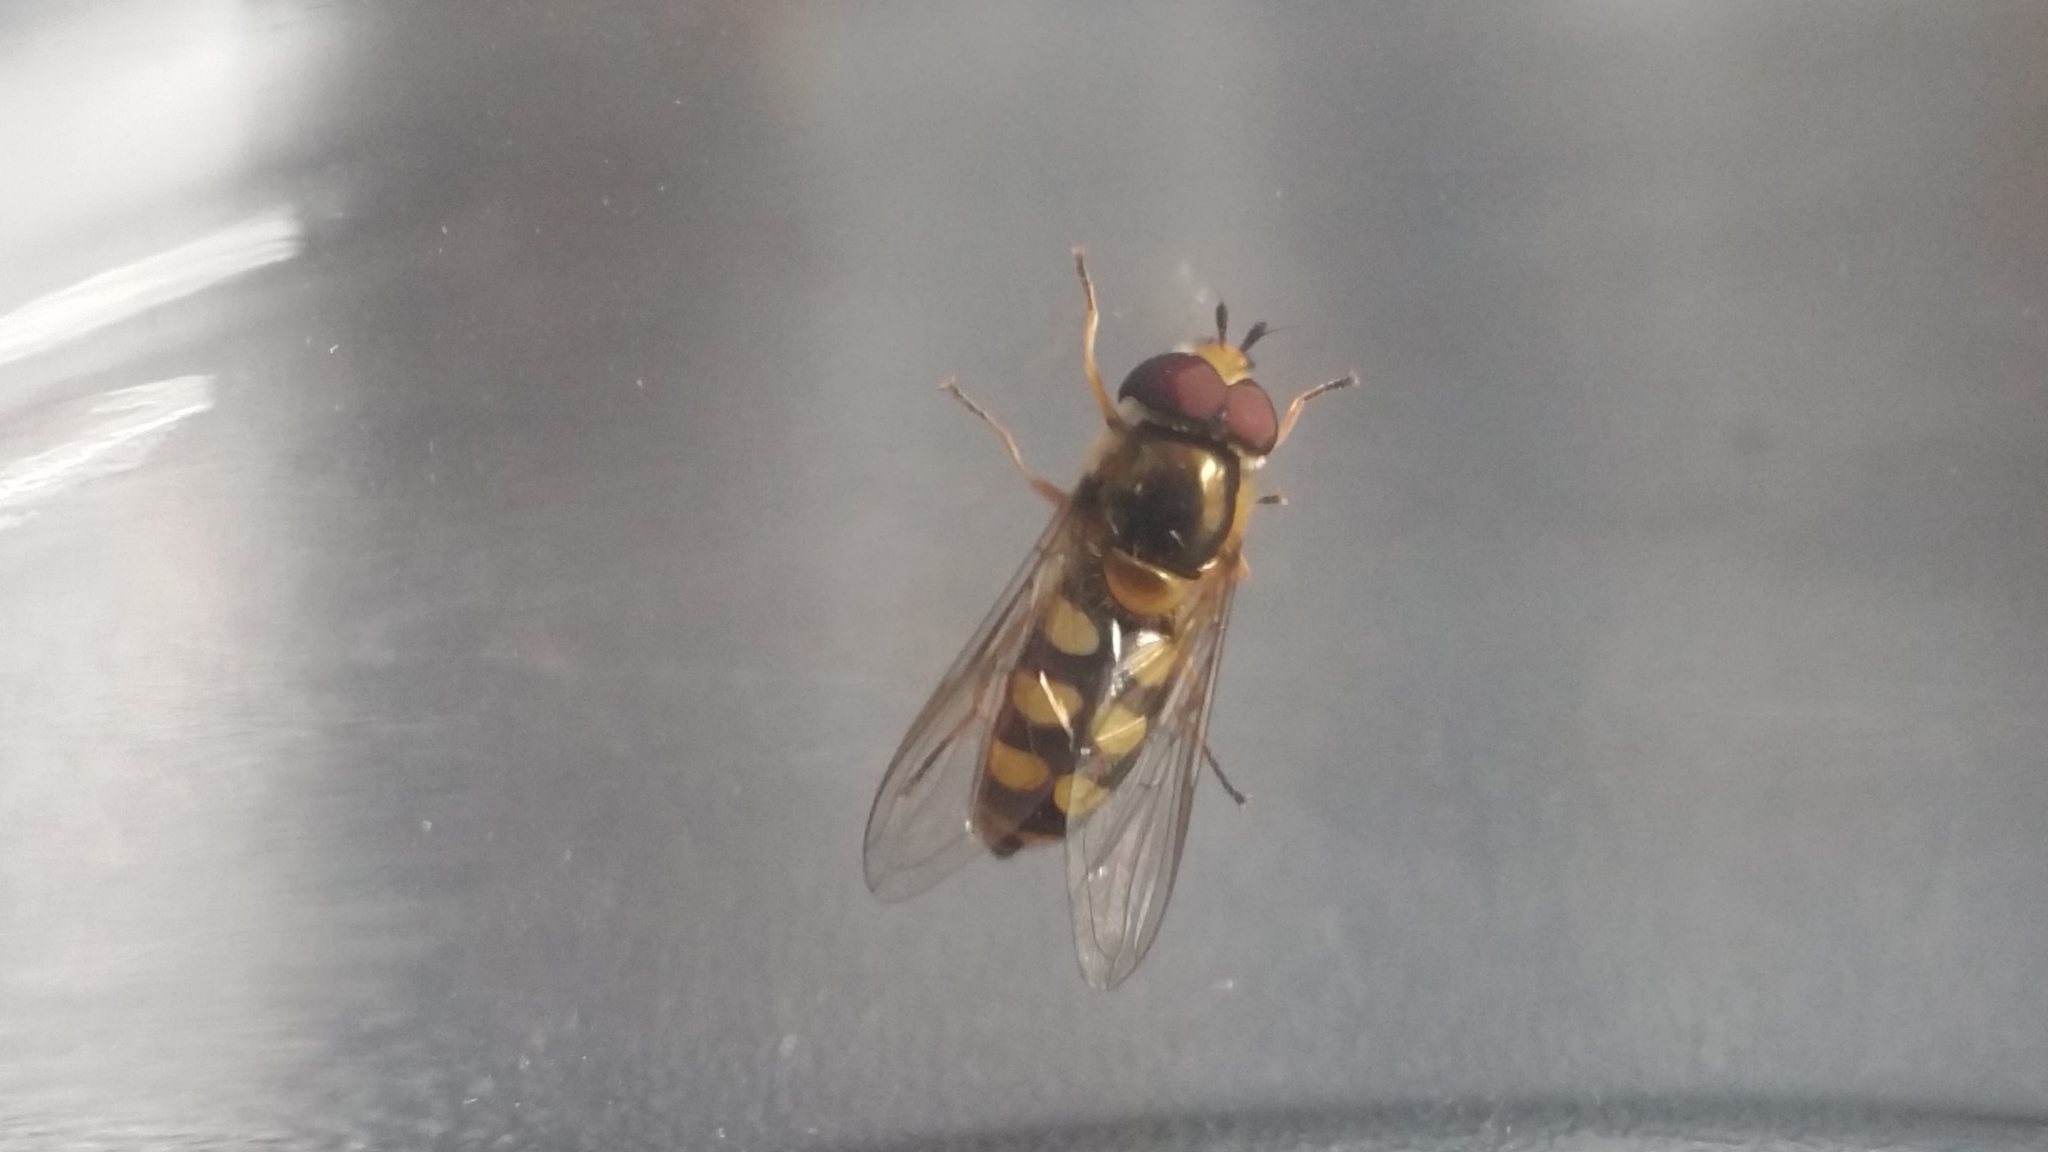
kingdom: Animalia
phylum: Arthropoda
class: Insecta
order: Diptera
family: Syrphidae
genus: Eupeodes
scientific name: Eupeodes
